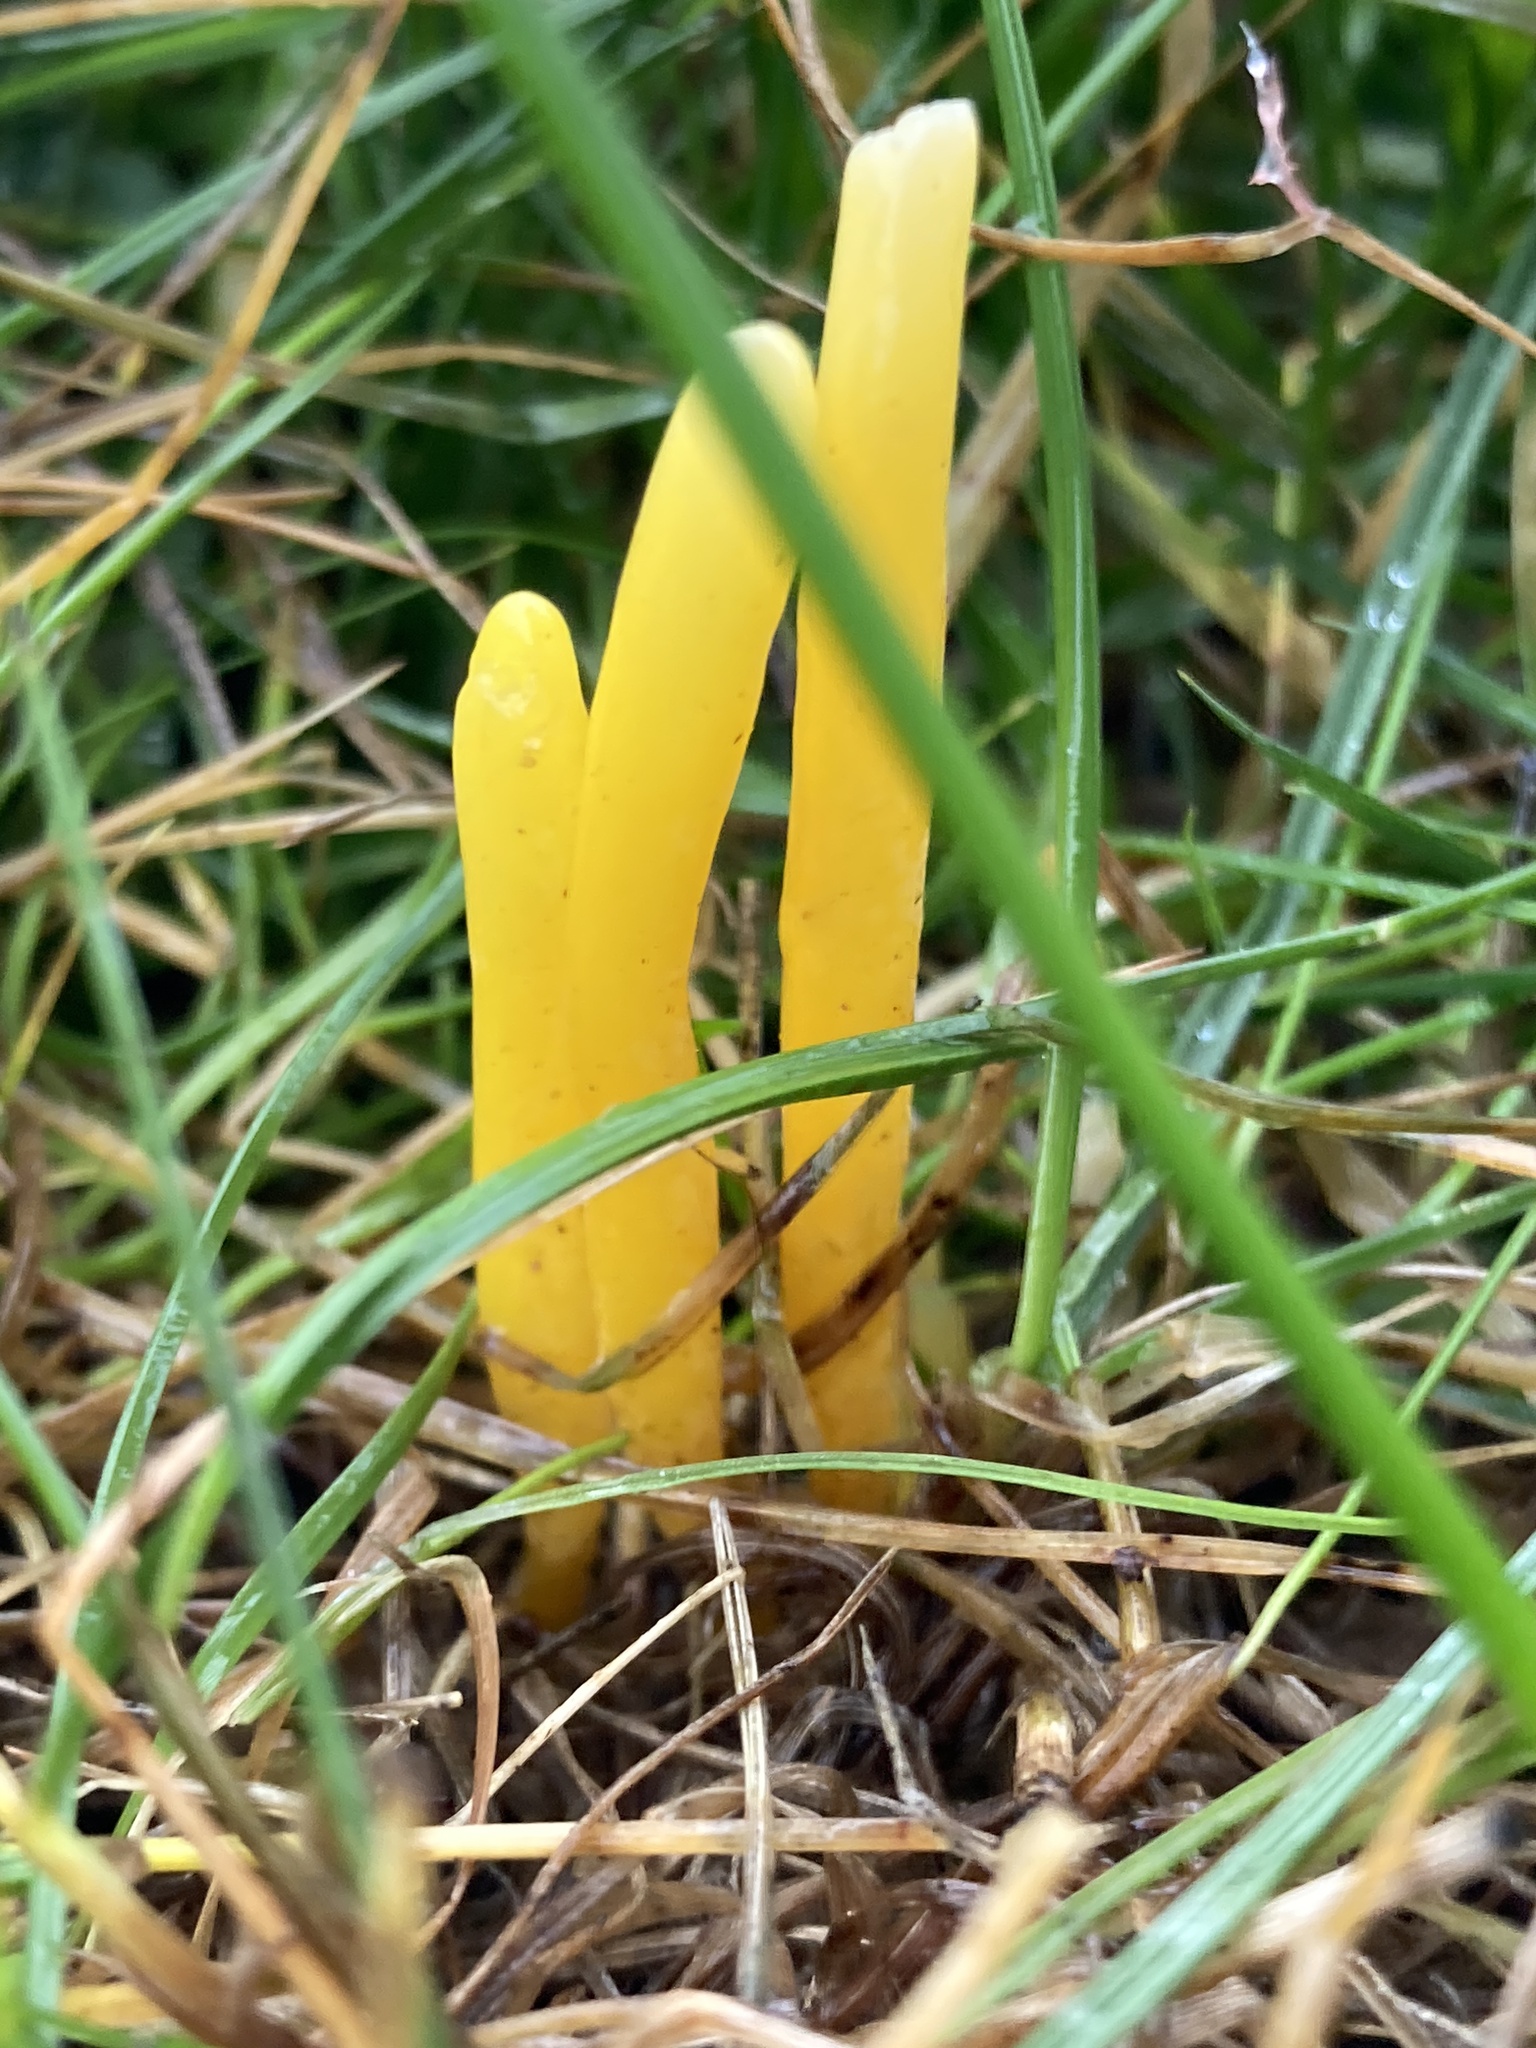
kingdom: Fungi
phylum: Basidiomycota
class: Agaricomycetes
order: Agaricales
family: Clavariaceae
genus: Clavulinopsis
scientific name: Clavulinopsis helvola
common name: Yellow club
